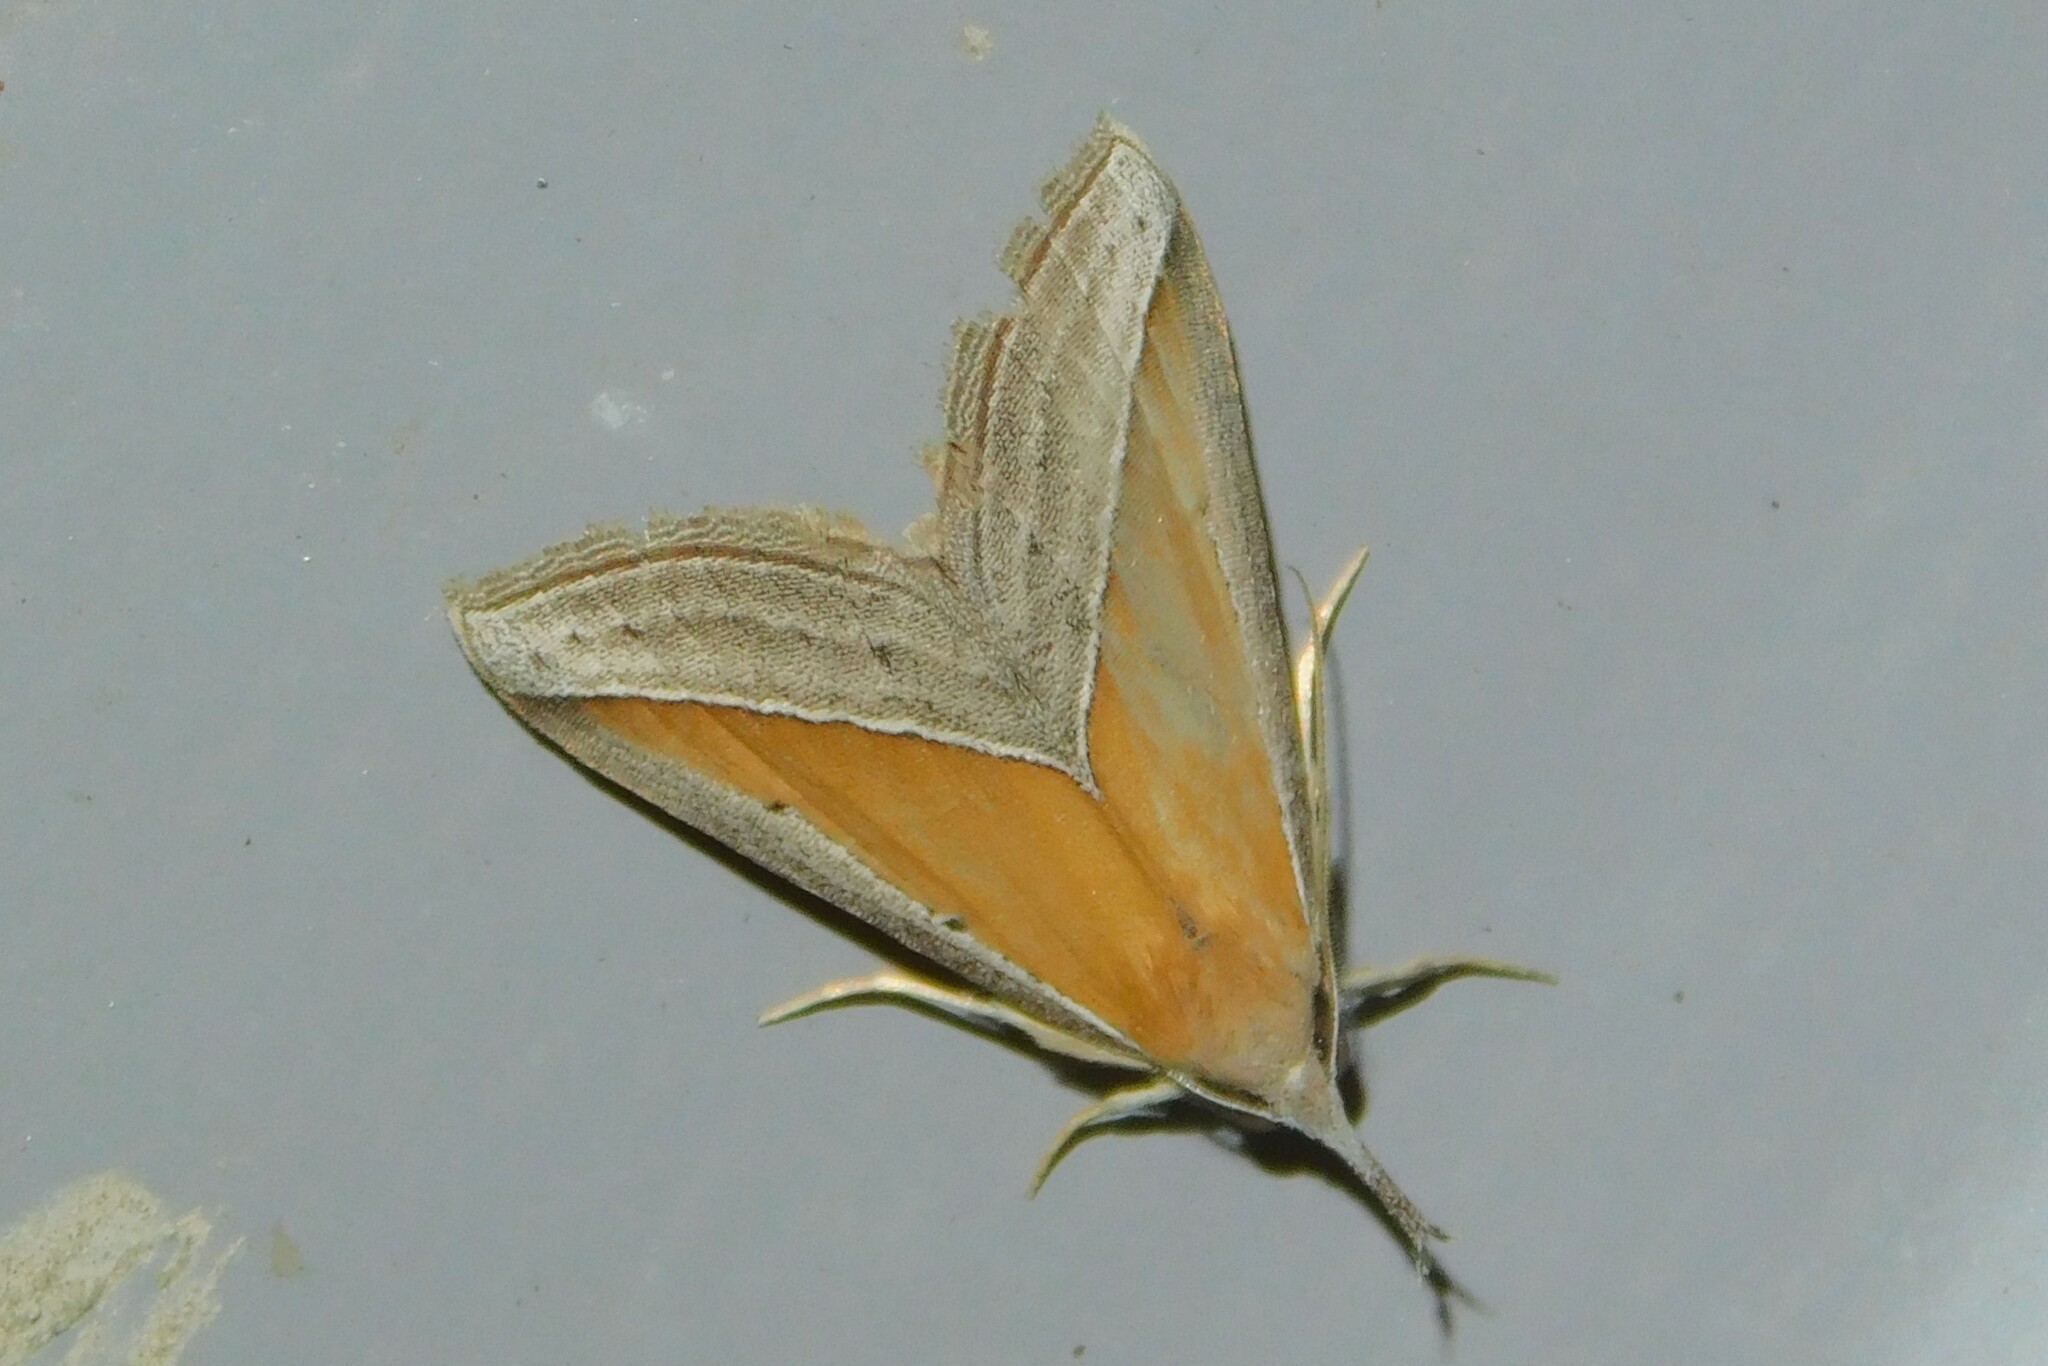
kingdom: Animalia
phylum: Arthropoda
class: Insecta
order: Lepidoptera
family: Erebidae
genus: Hypena
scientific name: Hypena conscitalis
